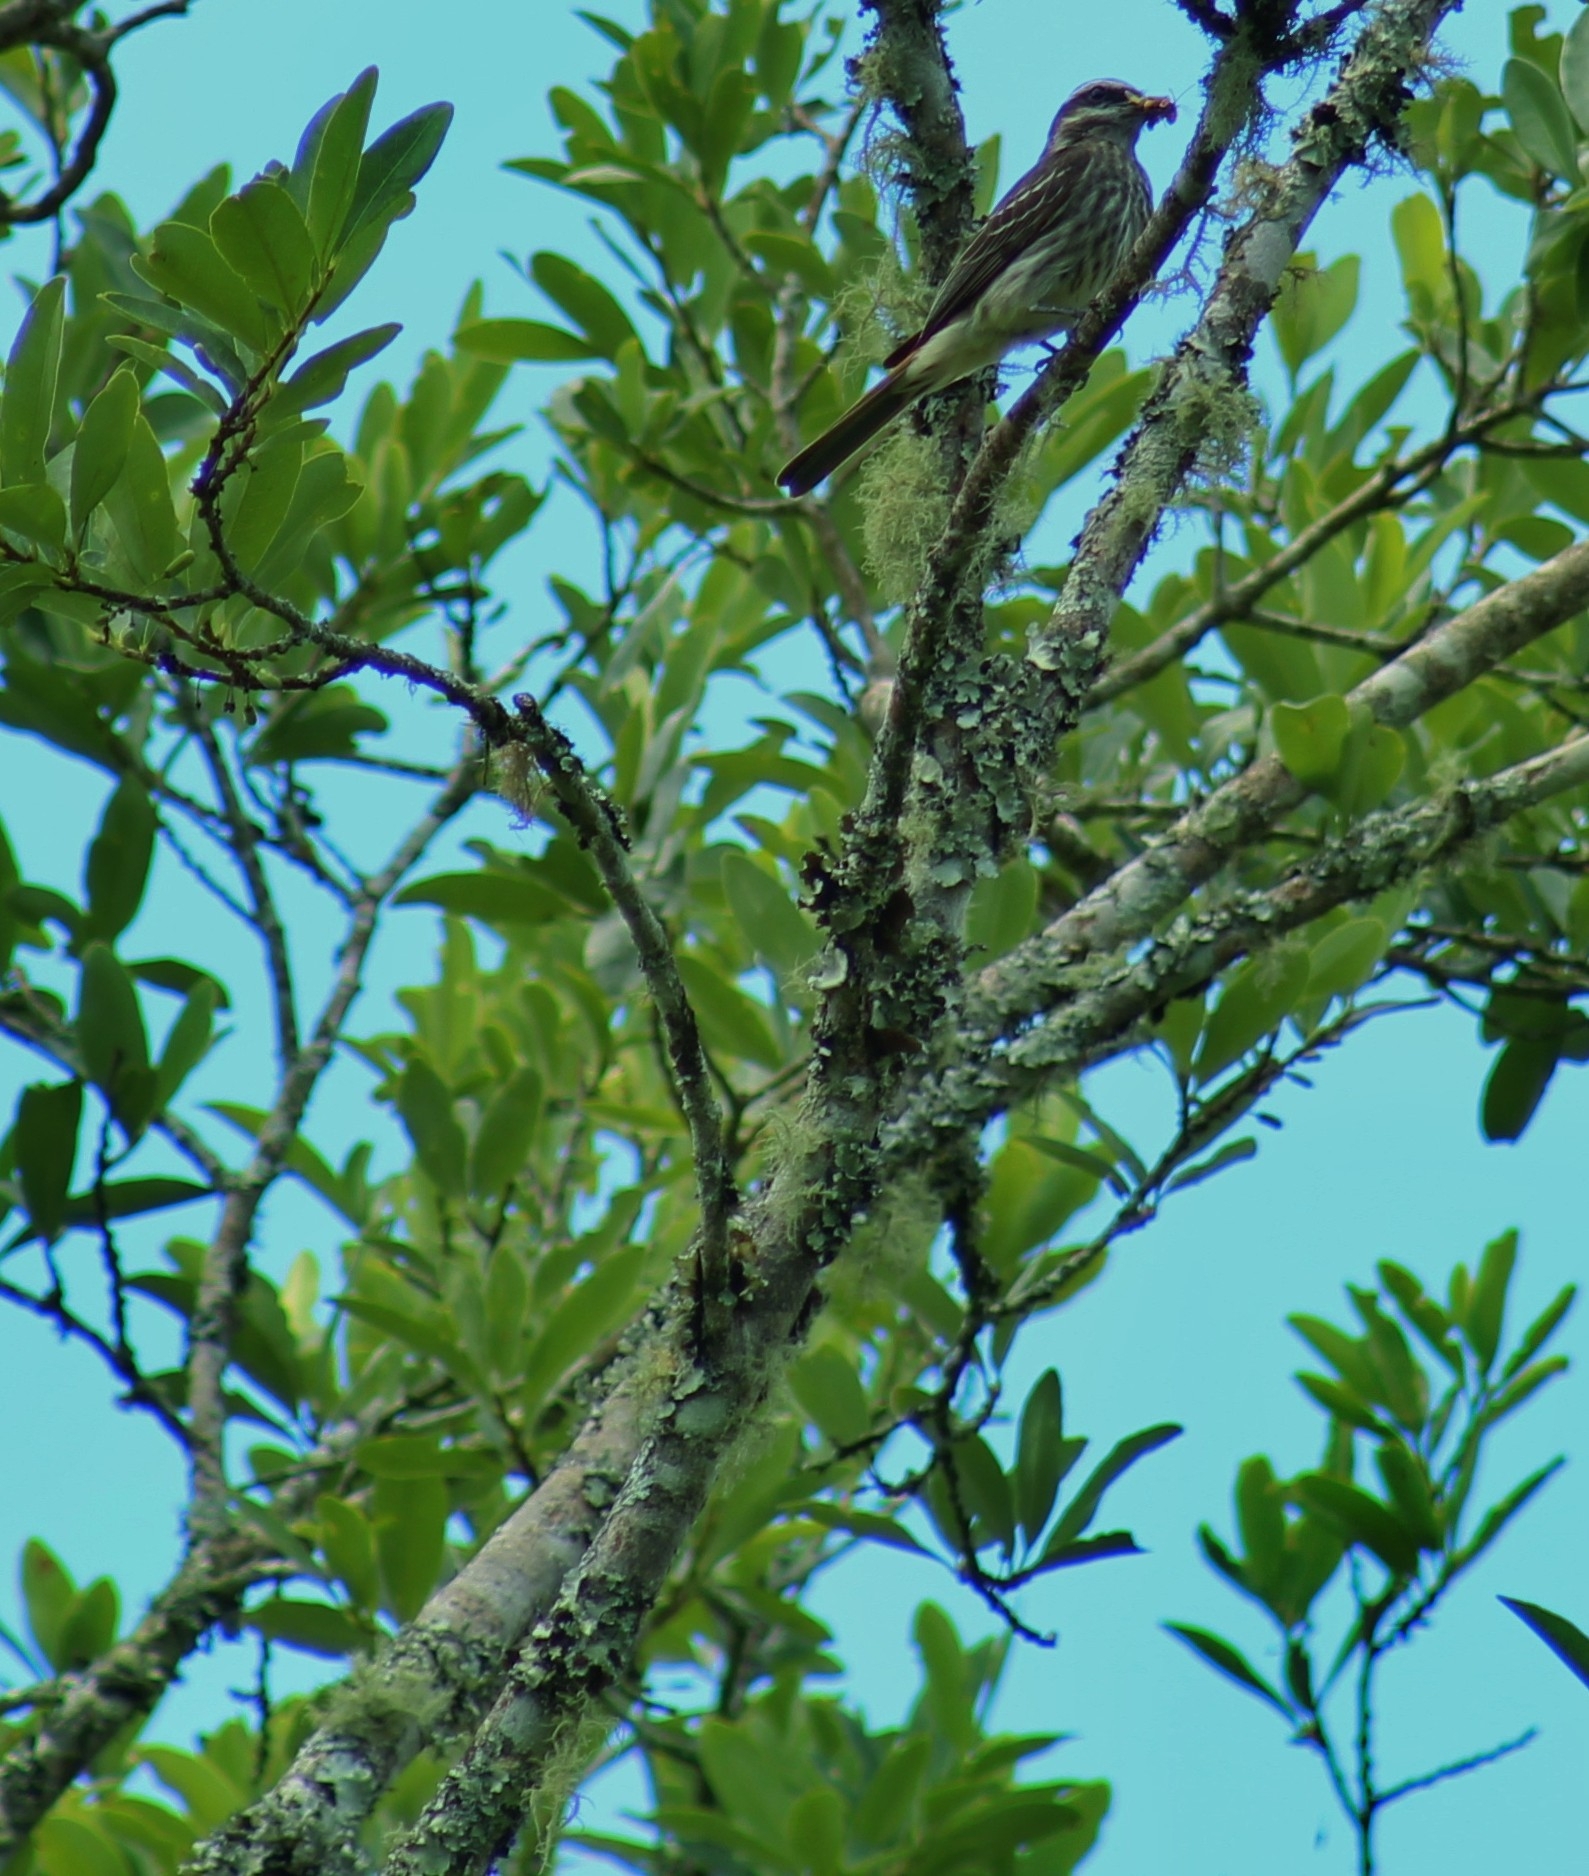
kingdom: Animalia
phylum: Chordata
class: Aves
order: Passeriformes
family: Tyrannidae
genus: Empidonomus
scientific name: Empidonomus varius
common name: Variegated flycatcher
